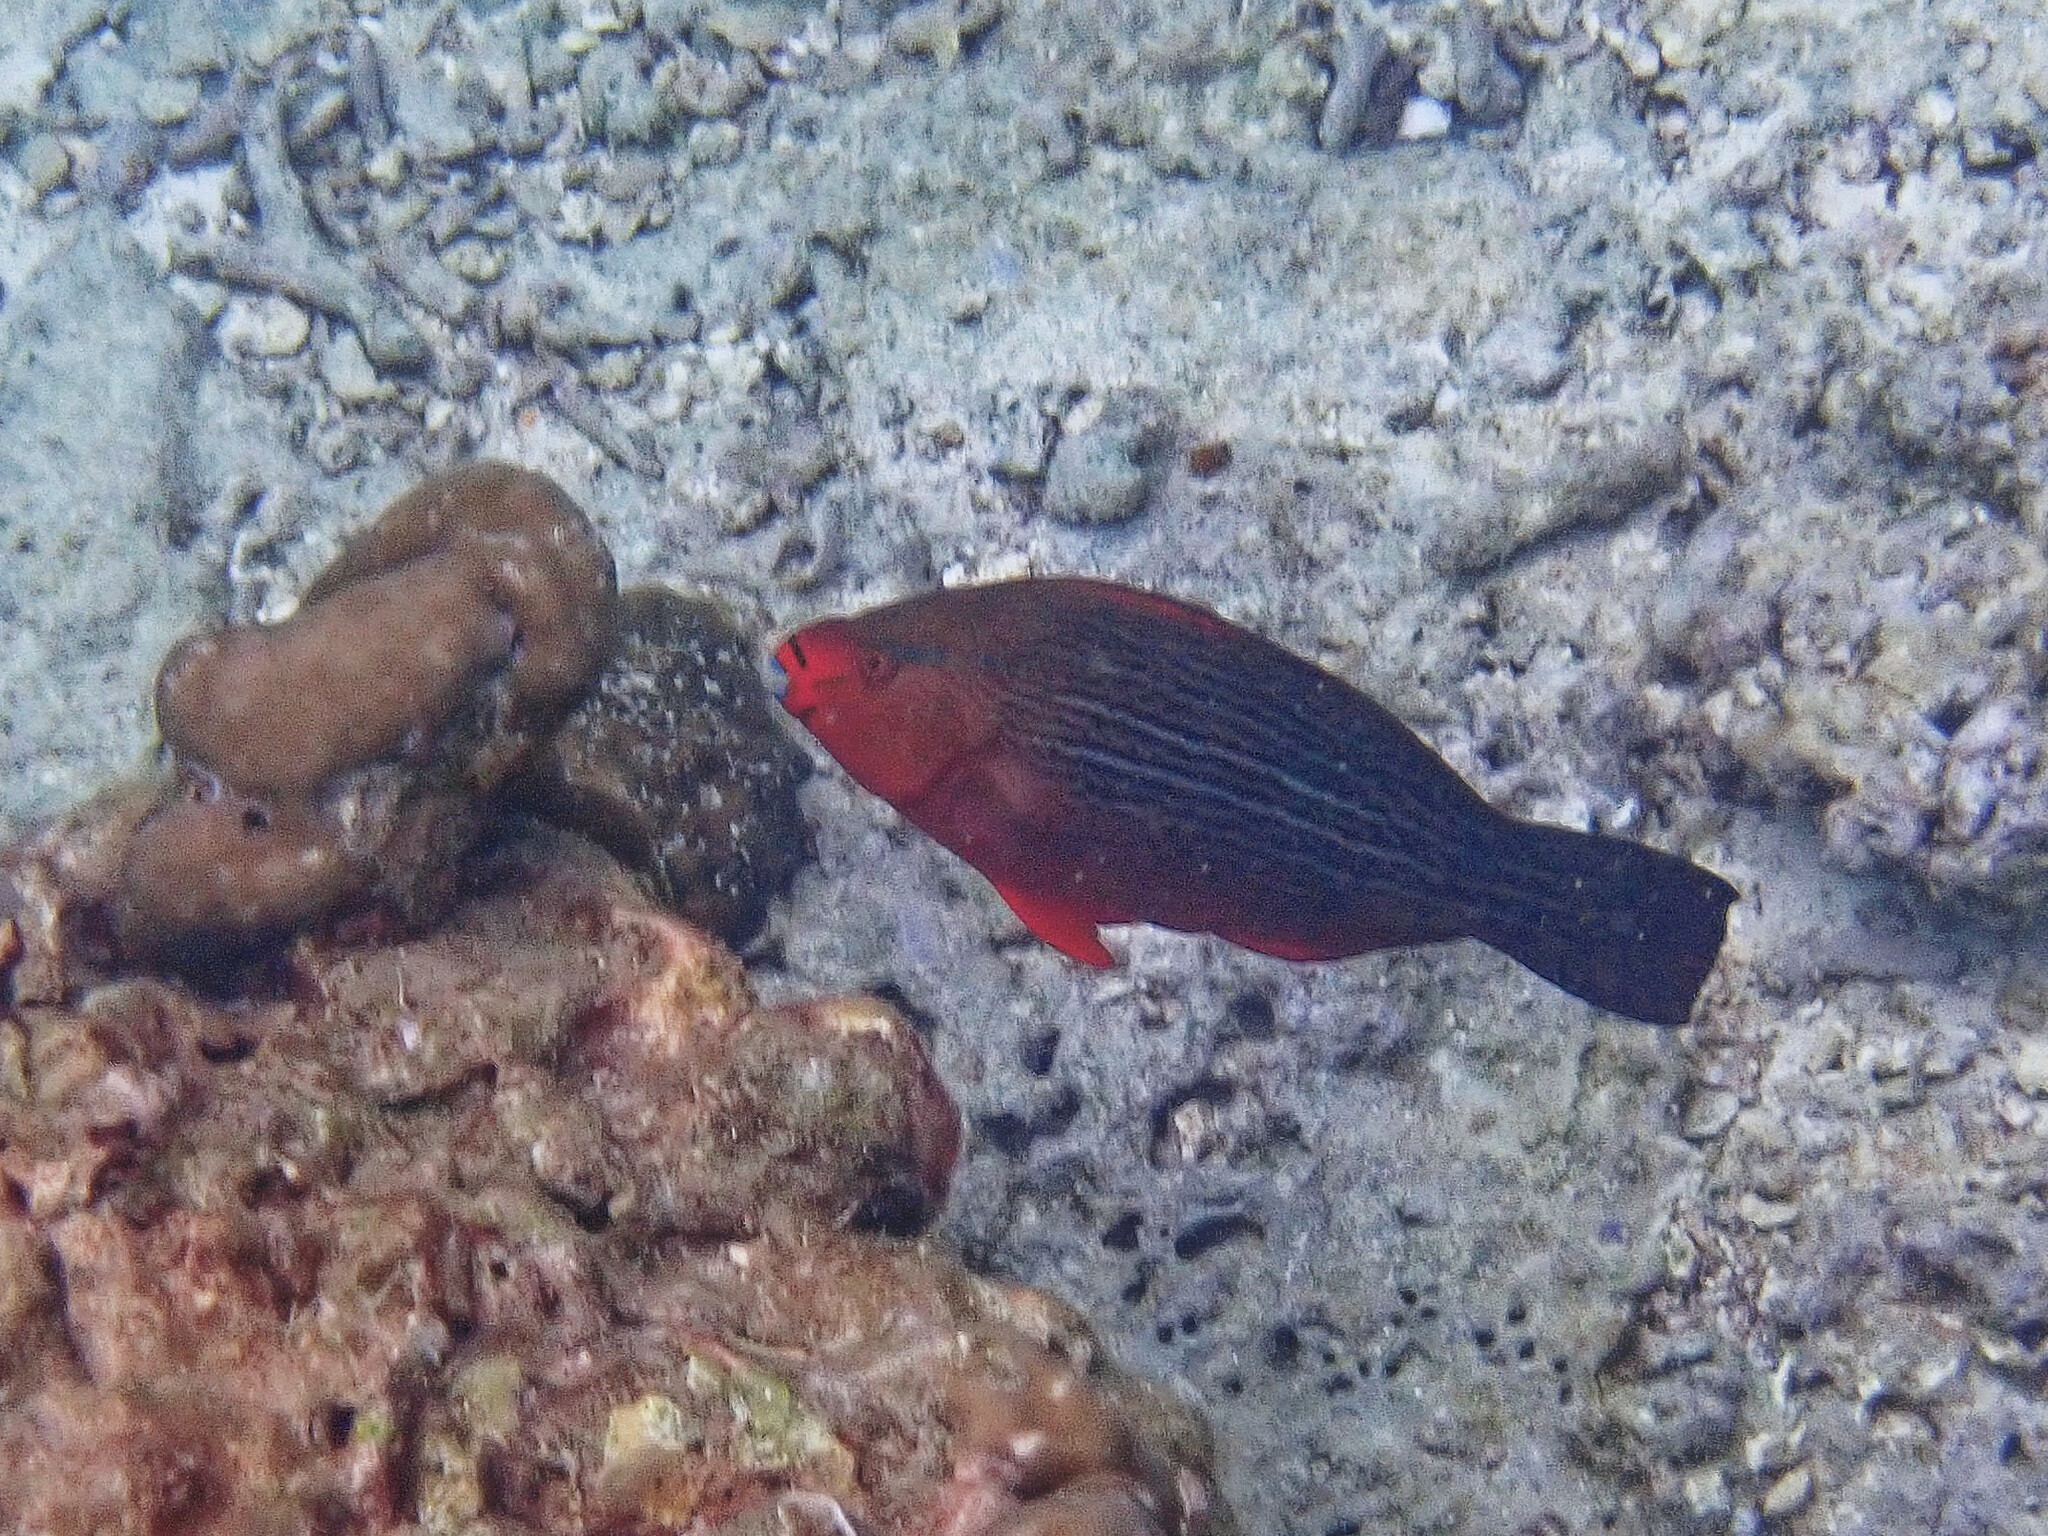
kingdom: Animalia
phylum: Chordata
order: Perciformes
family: Scaridae
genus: Scarus
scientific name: Scarus niger
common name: Dusky parrotfish
